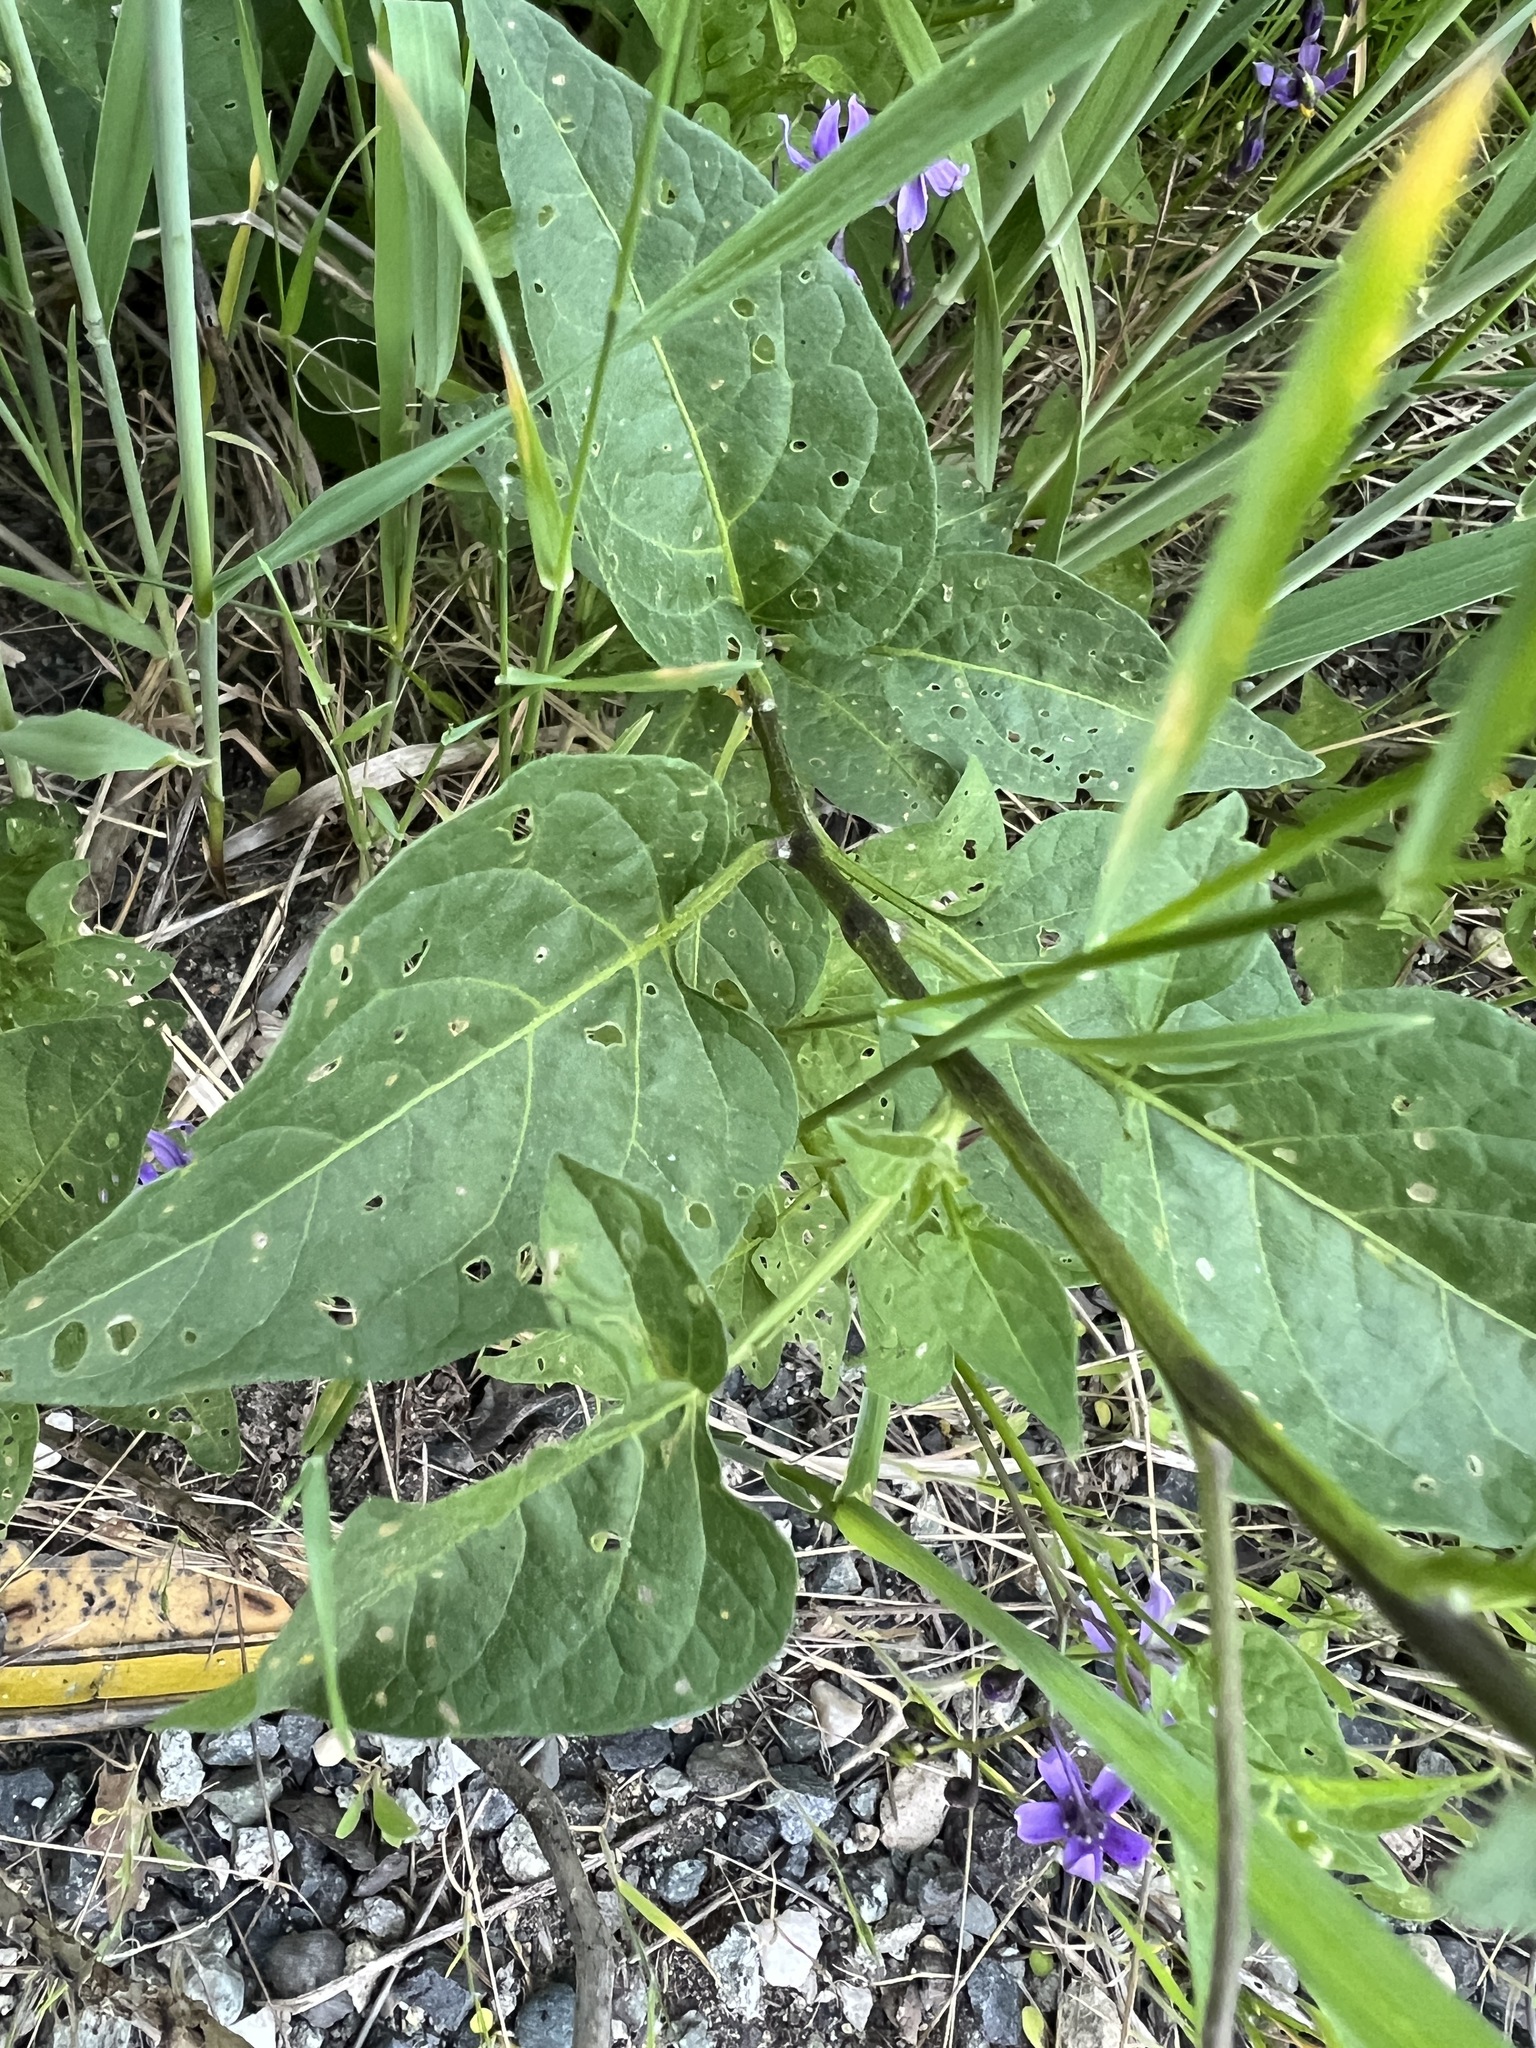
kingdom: Plantae
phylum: Tracheophyta
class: Magnoliopsida
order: Solanales
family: Solanaceae
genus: Solanum
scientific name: Solanum dulcamara
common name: Climbing nightshade
